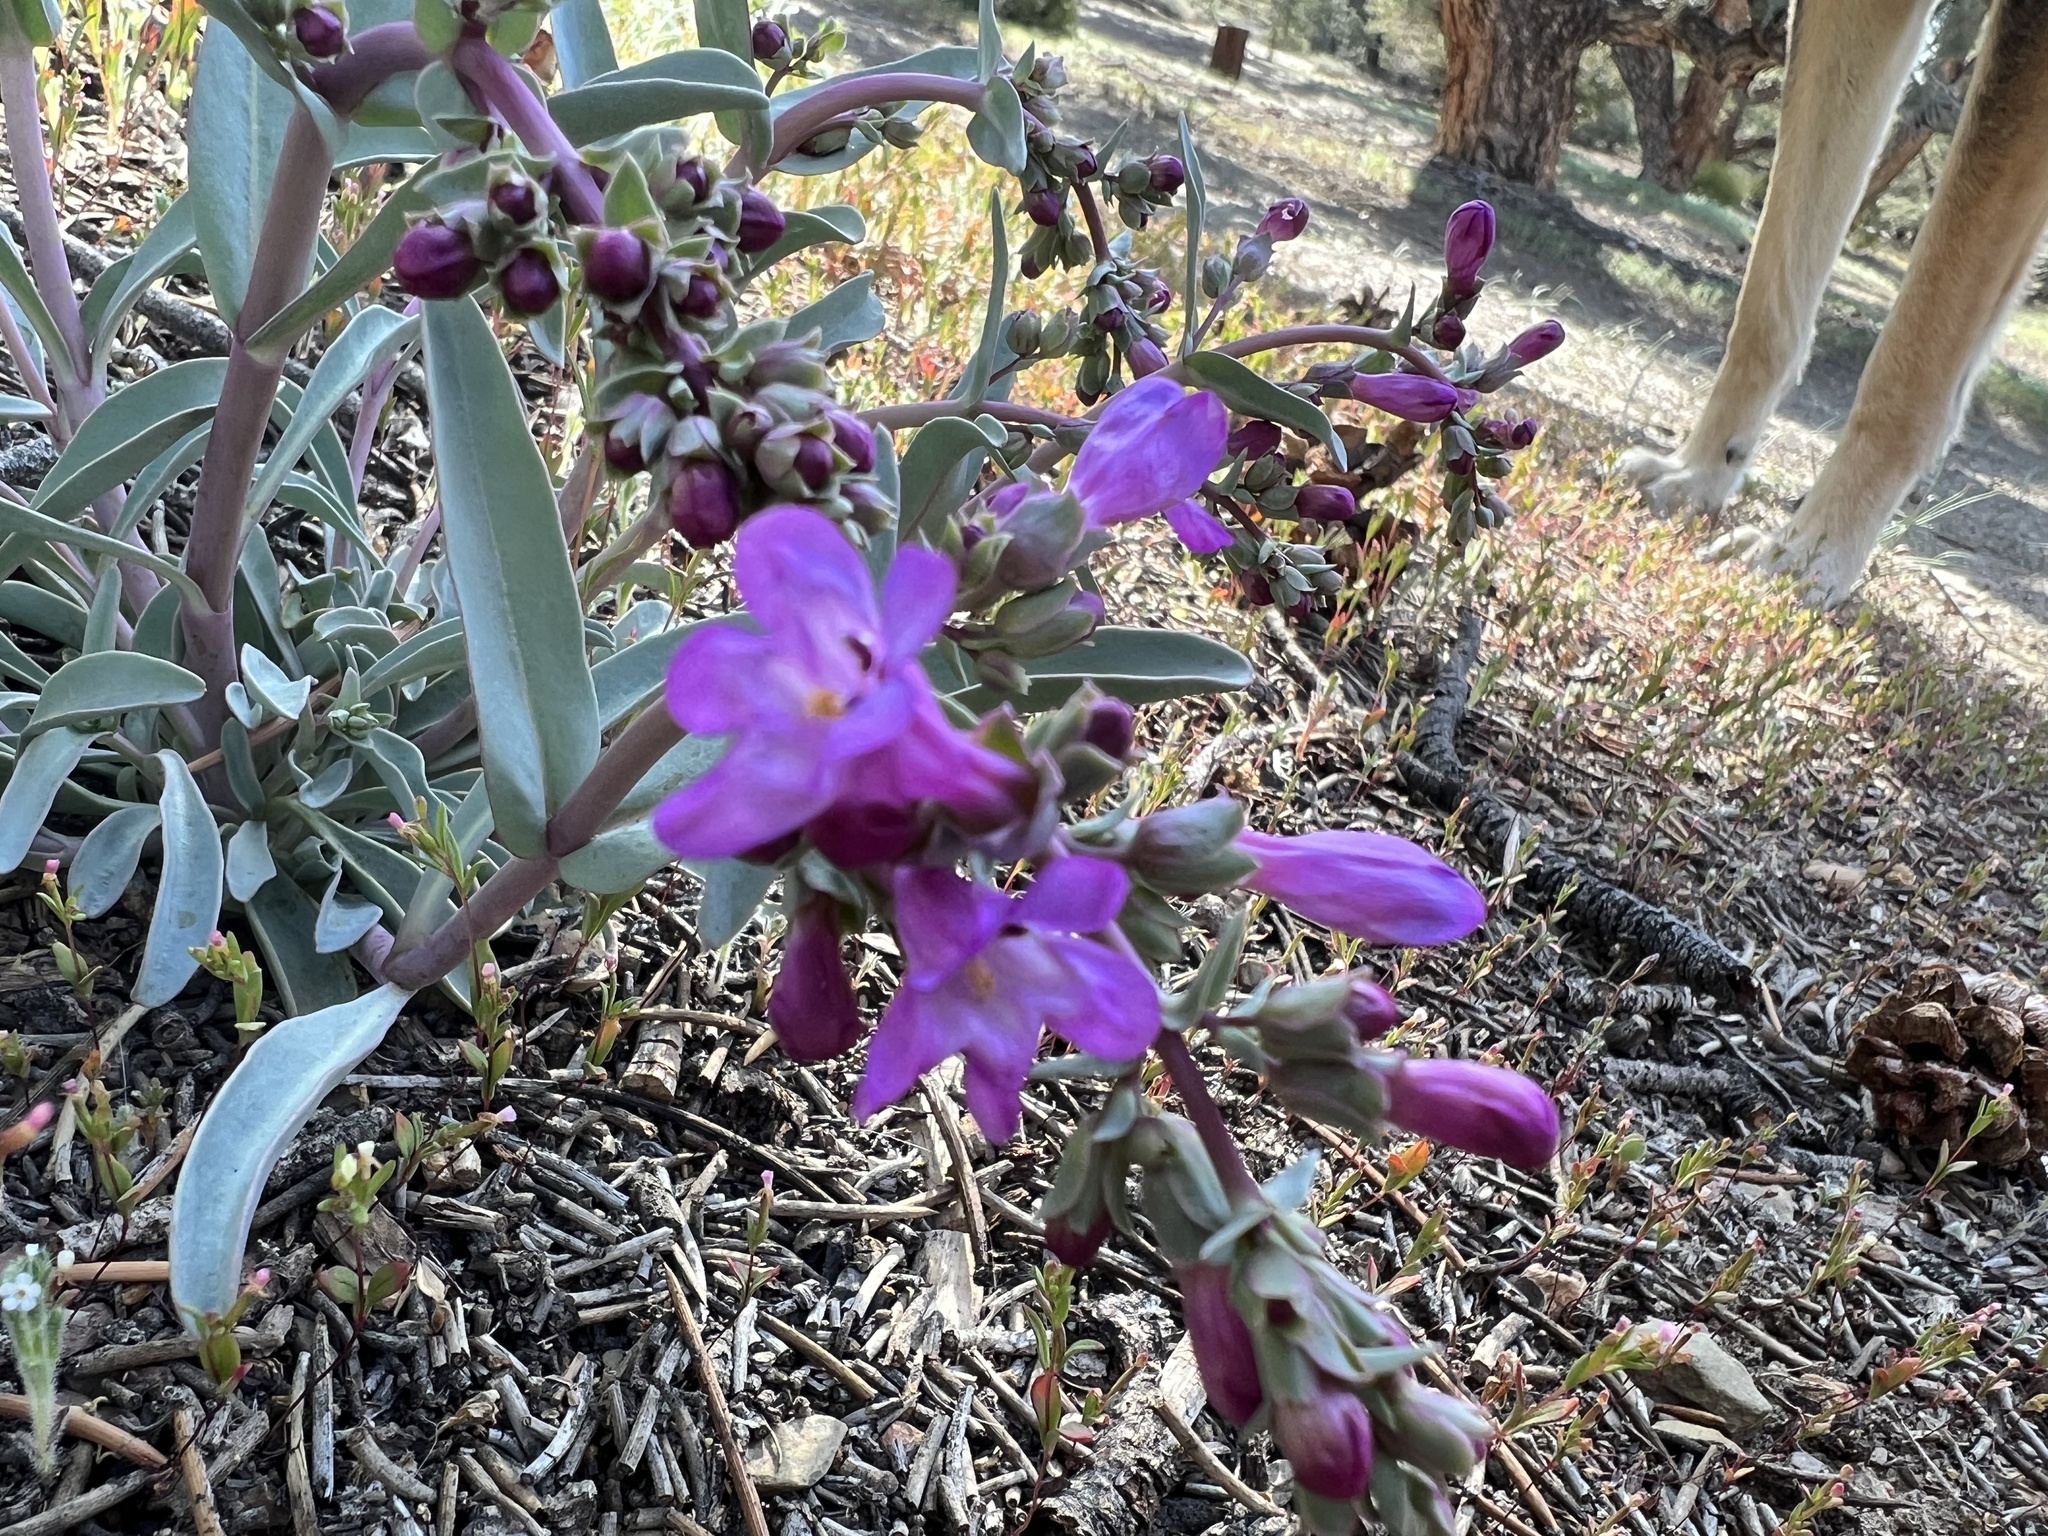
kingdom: Plantae
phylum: Tracheophyta
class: Magnoliopsida
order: Lamiales
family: Plantaginaceae
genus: Penstemon
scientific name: Penstemon patens
